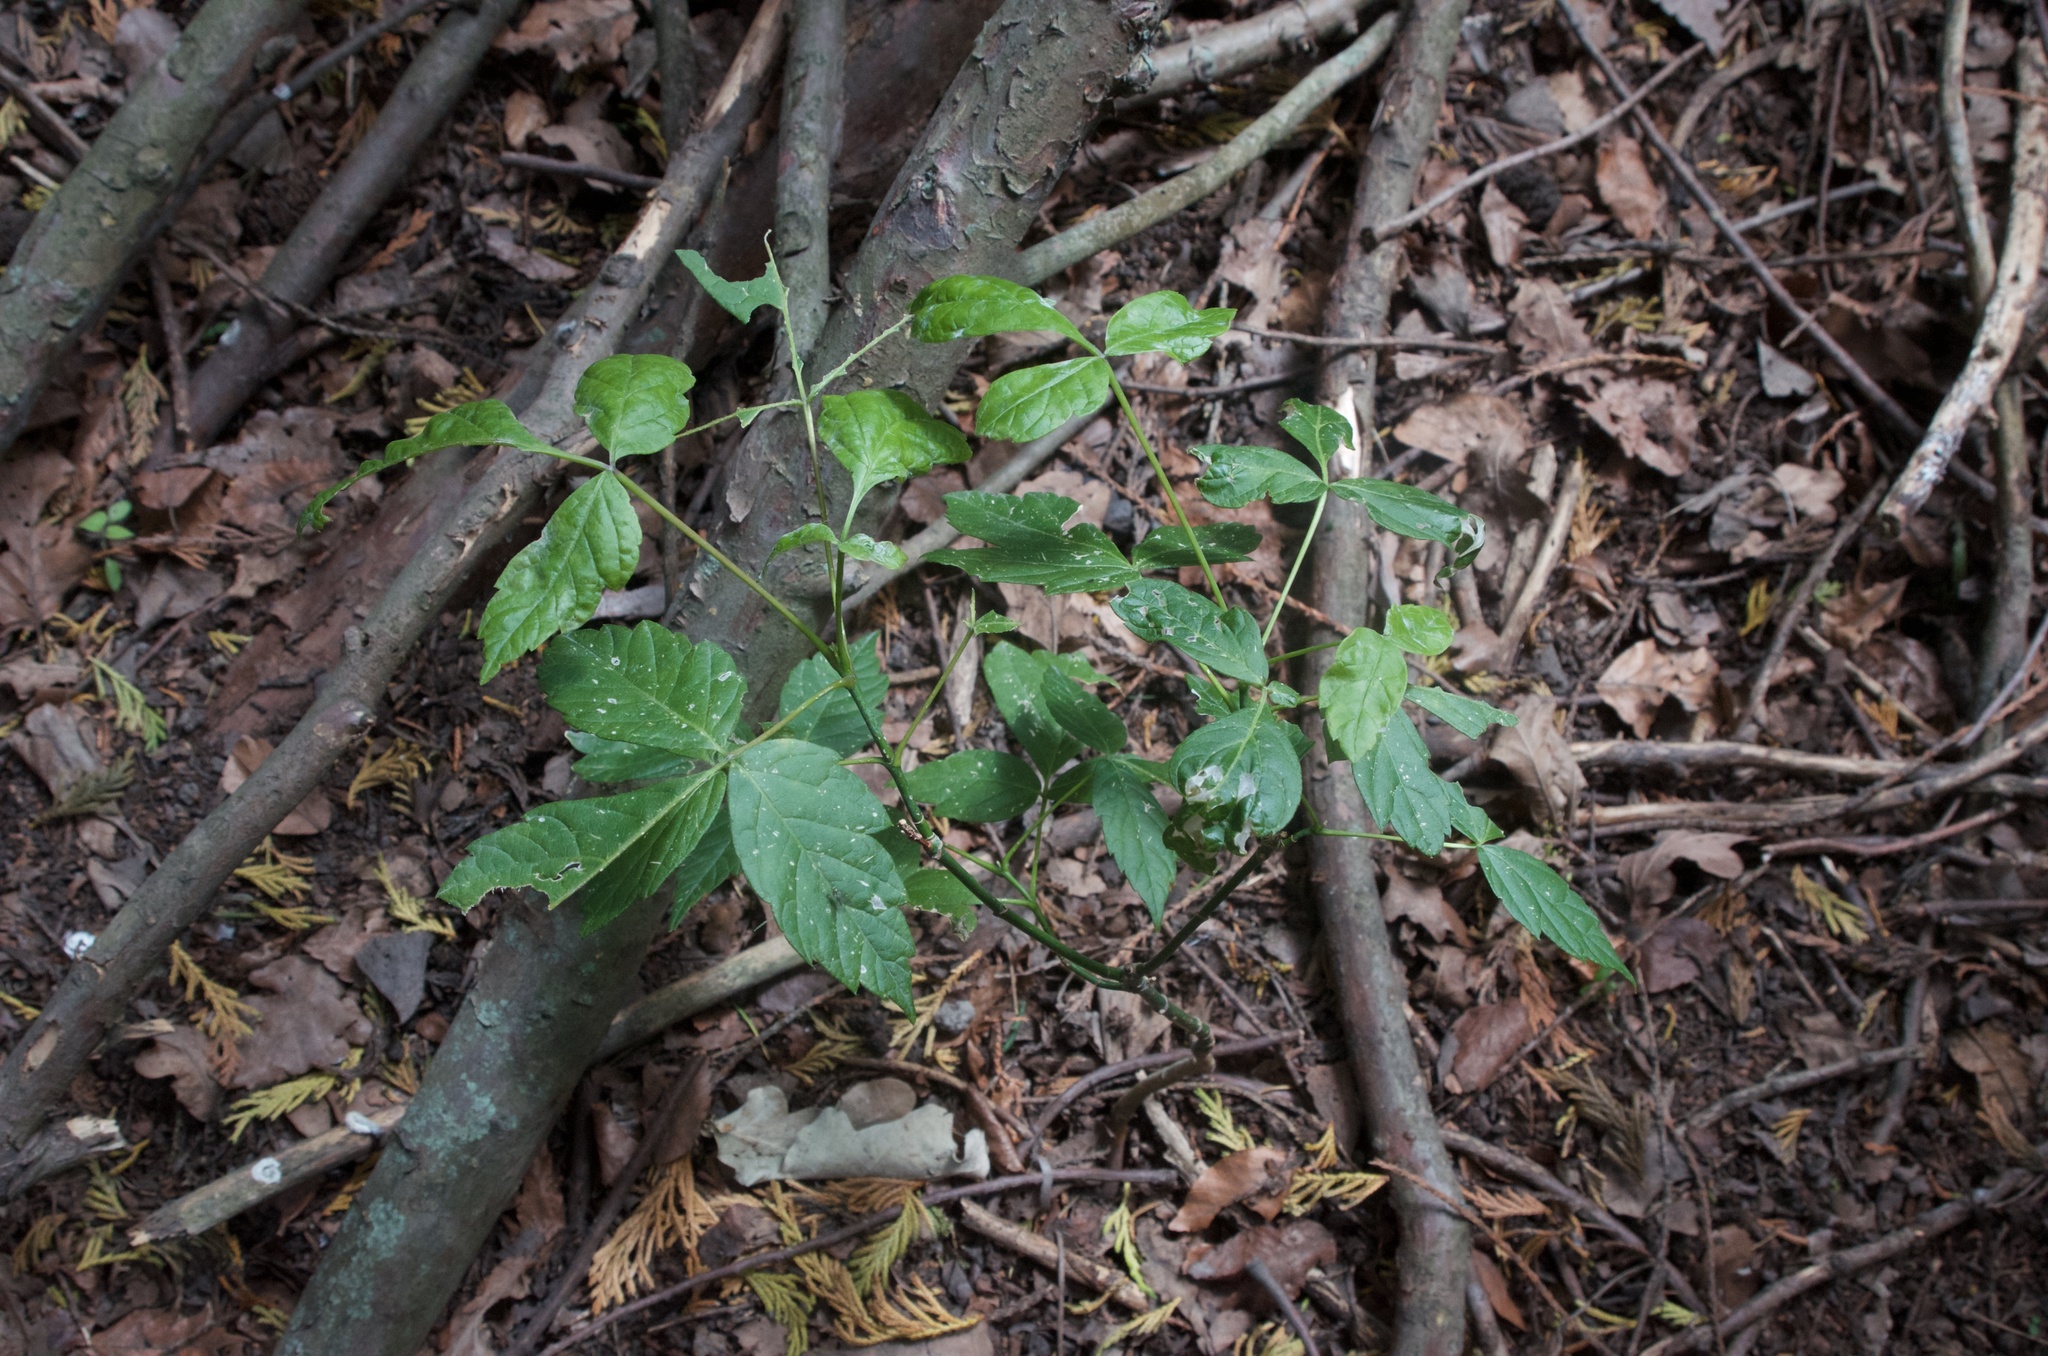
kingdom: Plantae
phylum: Tracheophyta
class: Magnoliopsida
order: Sapindales
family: Sapindaceae
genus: Acer
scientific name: Acer negundo
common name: Ashleaf maple
